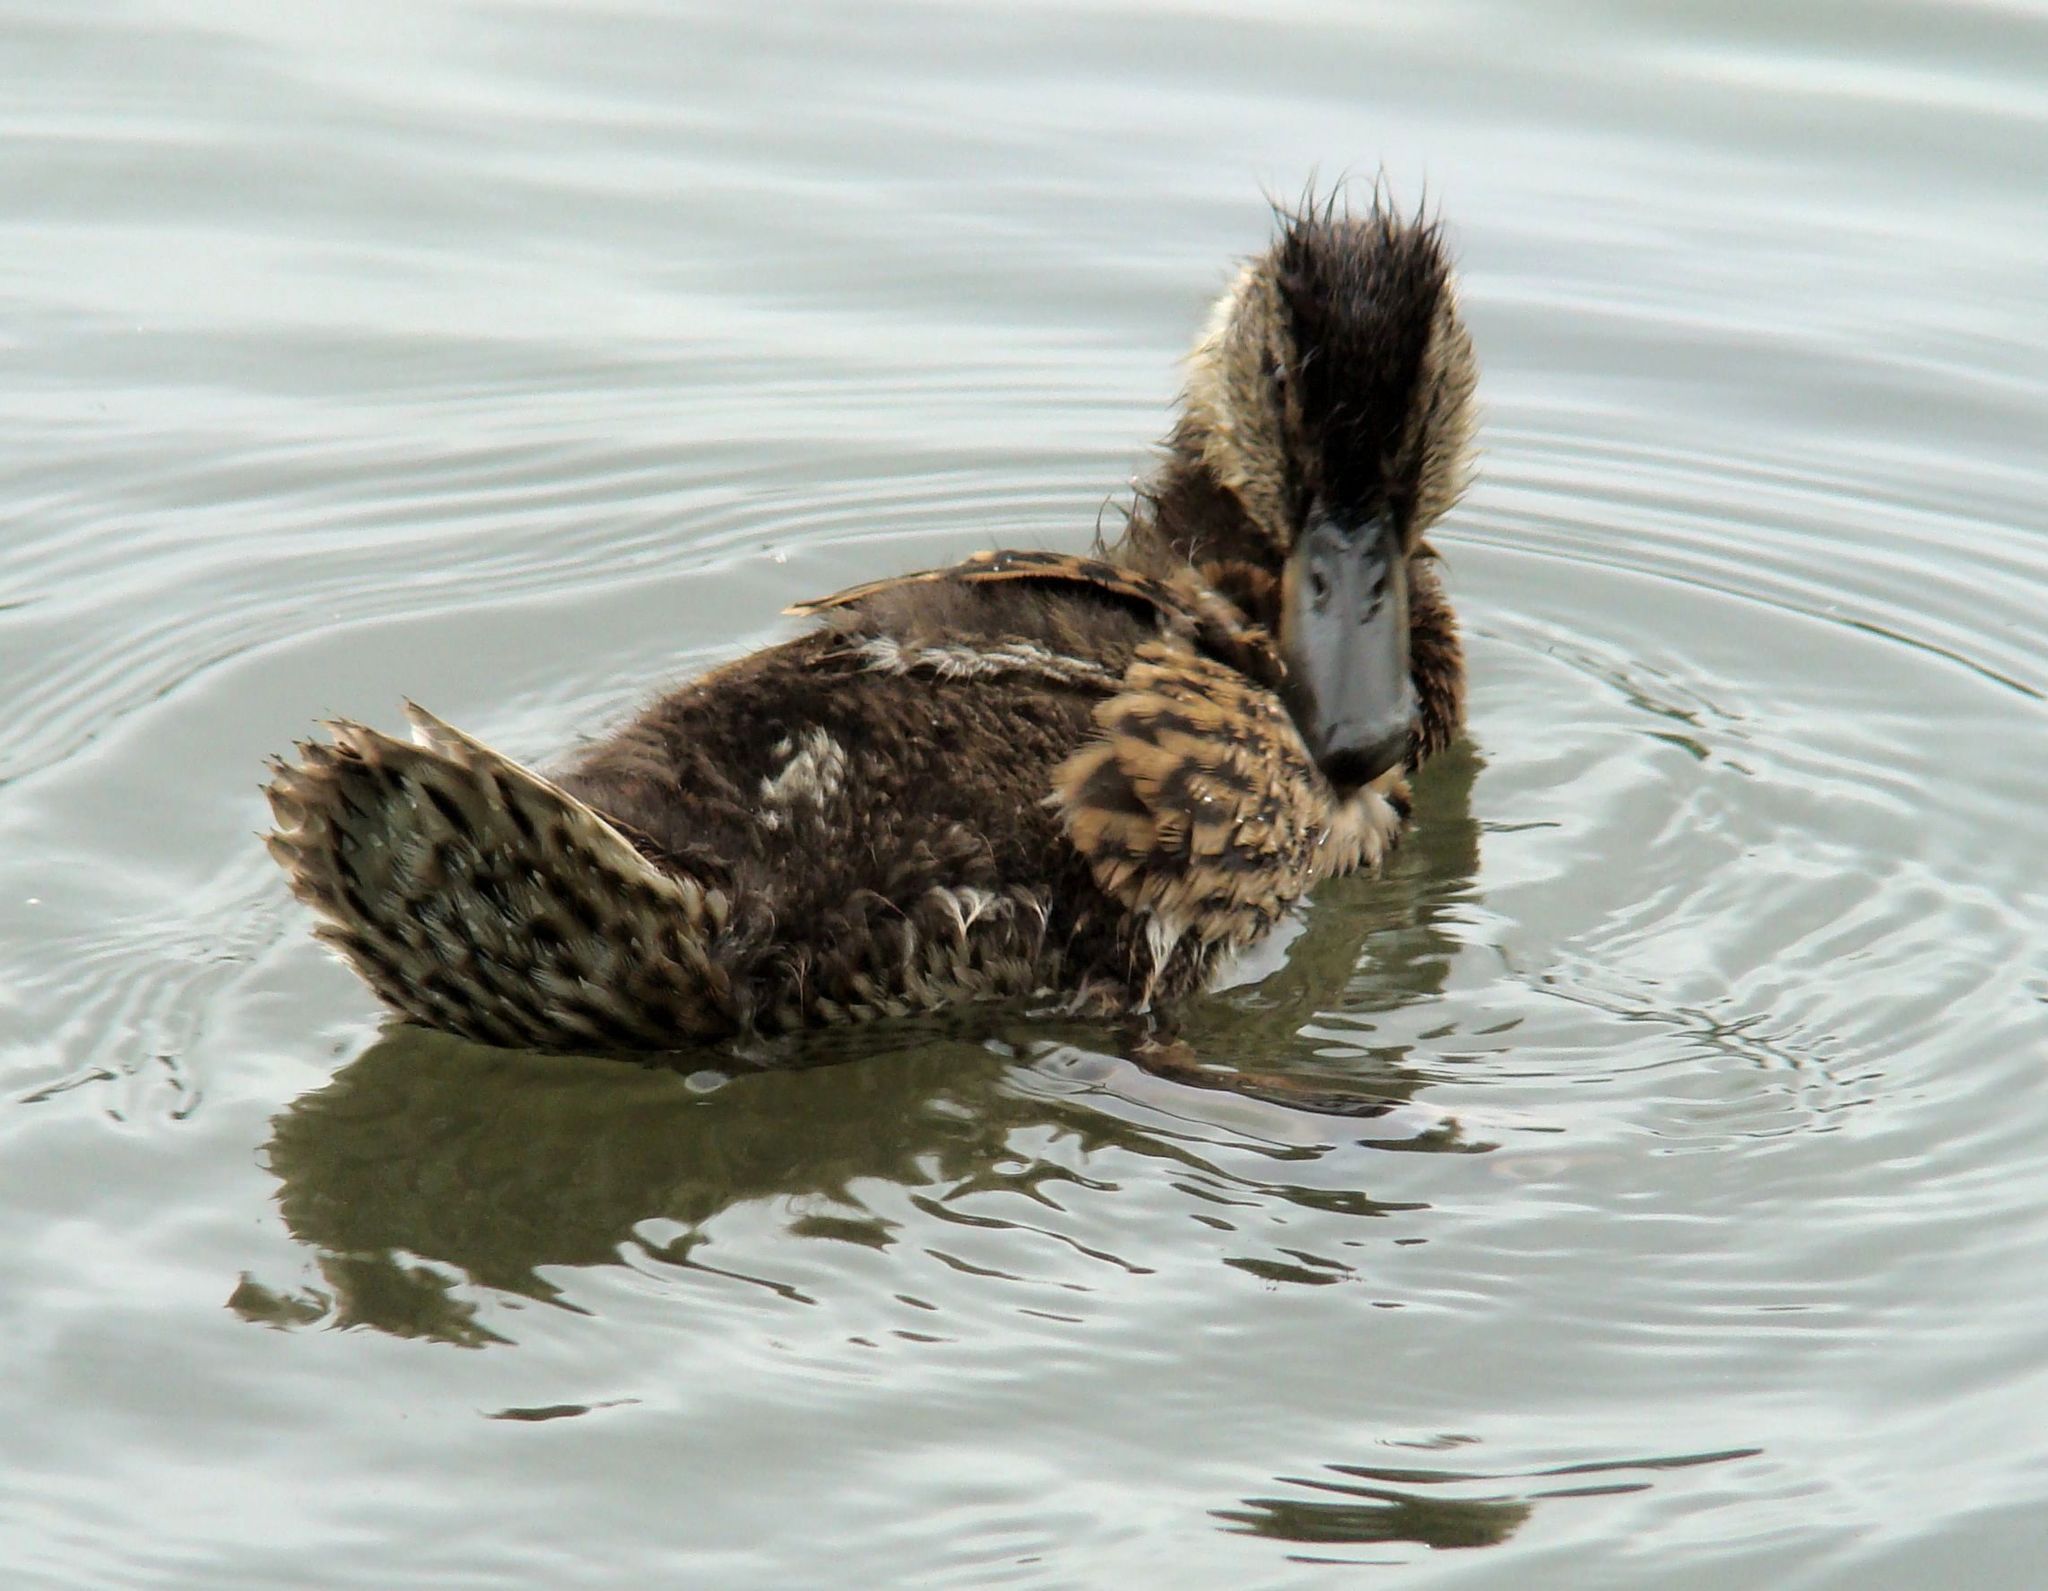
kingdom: Animalia
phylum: Chordata
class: Aves
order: Anseriformes
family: Anatidae
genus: Anas
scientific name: Anas platyrhynchos
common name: Mallard
